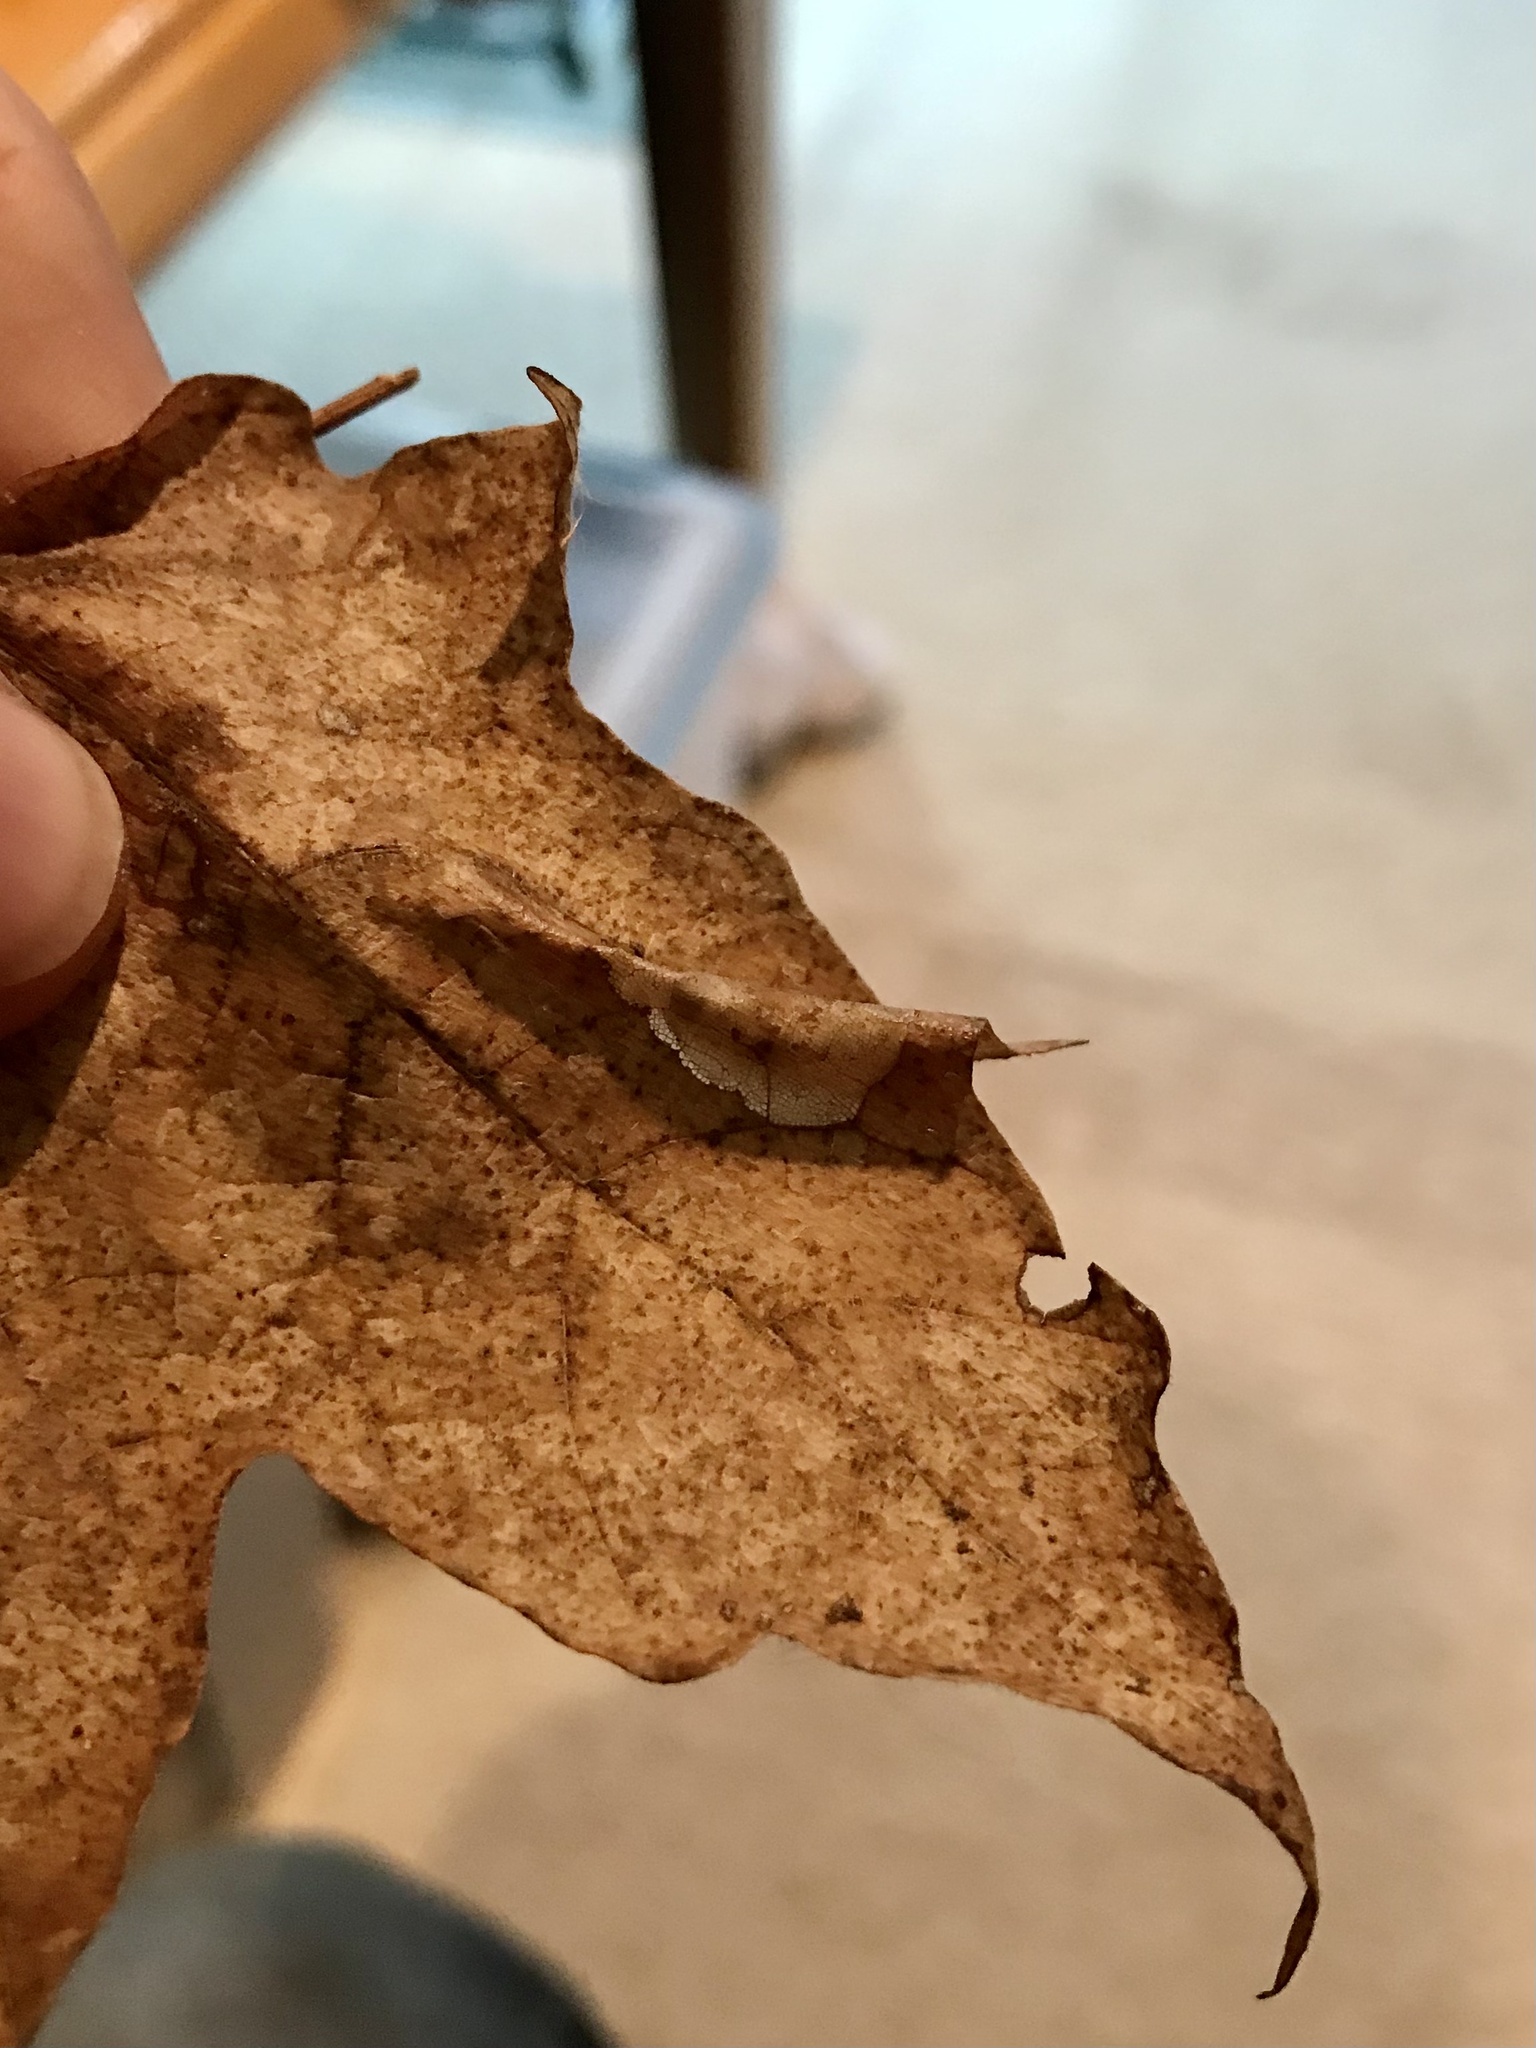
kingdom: Animalia
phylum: Arthropoda
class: Insecta
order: Lepidoptera
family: Gracillariidae
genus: Phyllonorycter
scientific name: Phyllonorycter lucidicostella
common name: Lesser maple leaf blotch miner moth
